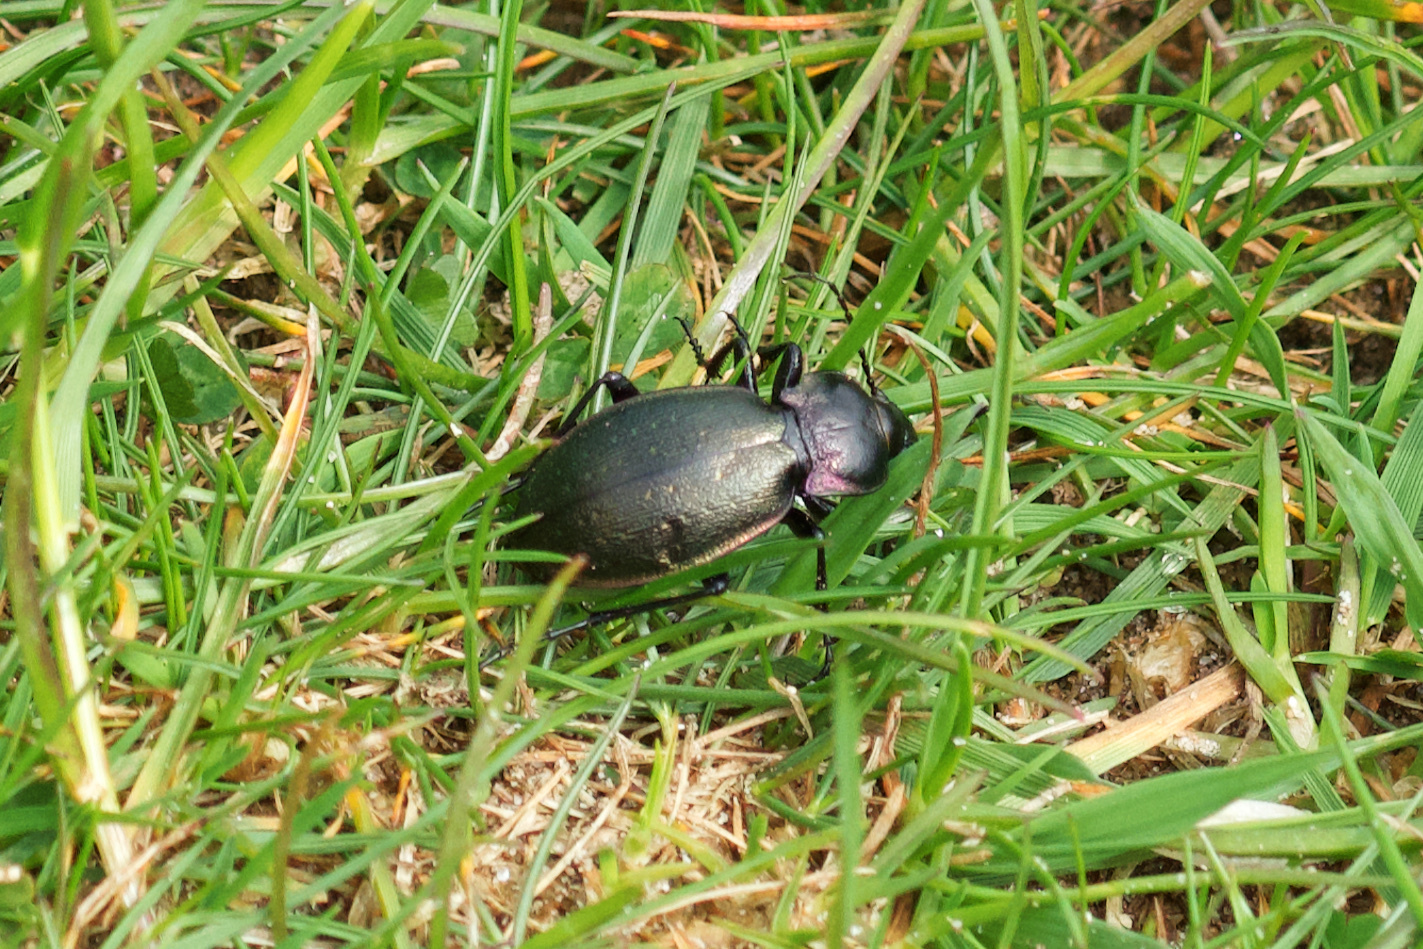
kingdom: Animalia
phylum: Arthropoda
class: Insecta
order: Coleoptera
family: Carabidae
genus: Carabus
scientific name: Carabus nemoralis
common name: European ground beetle
